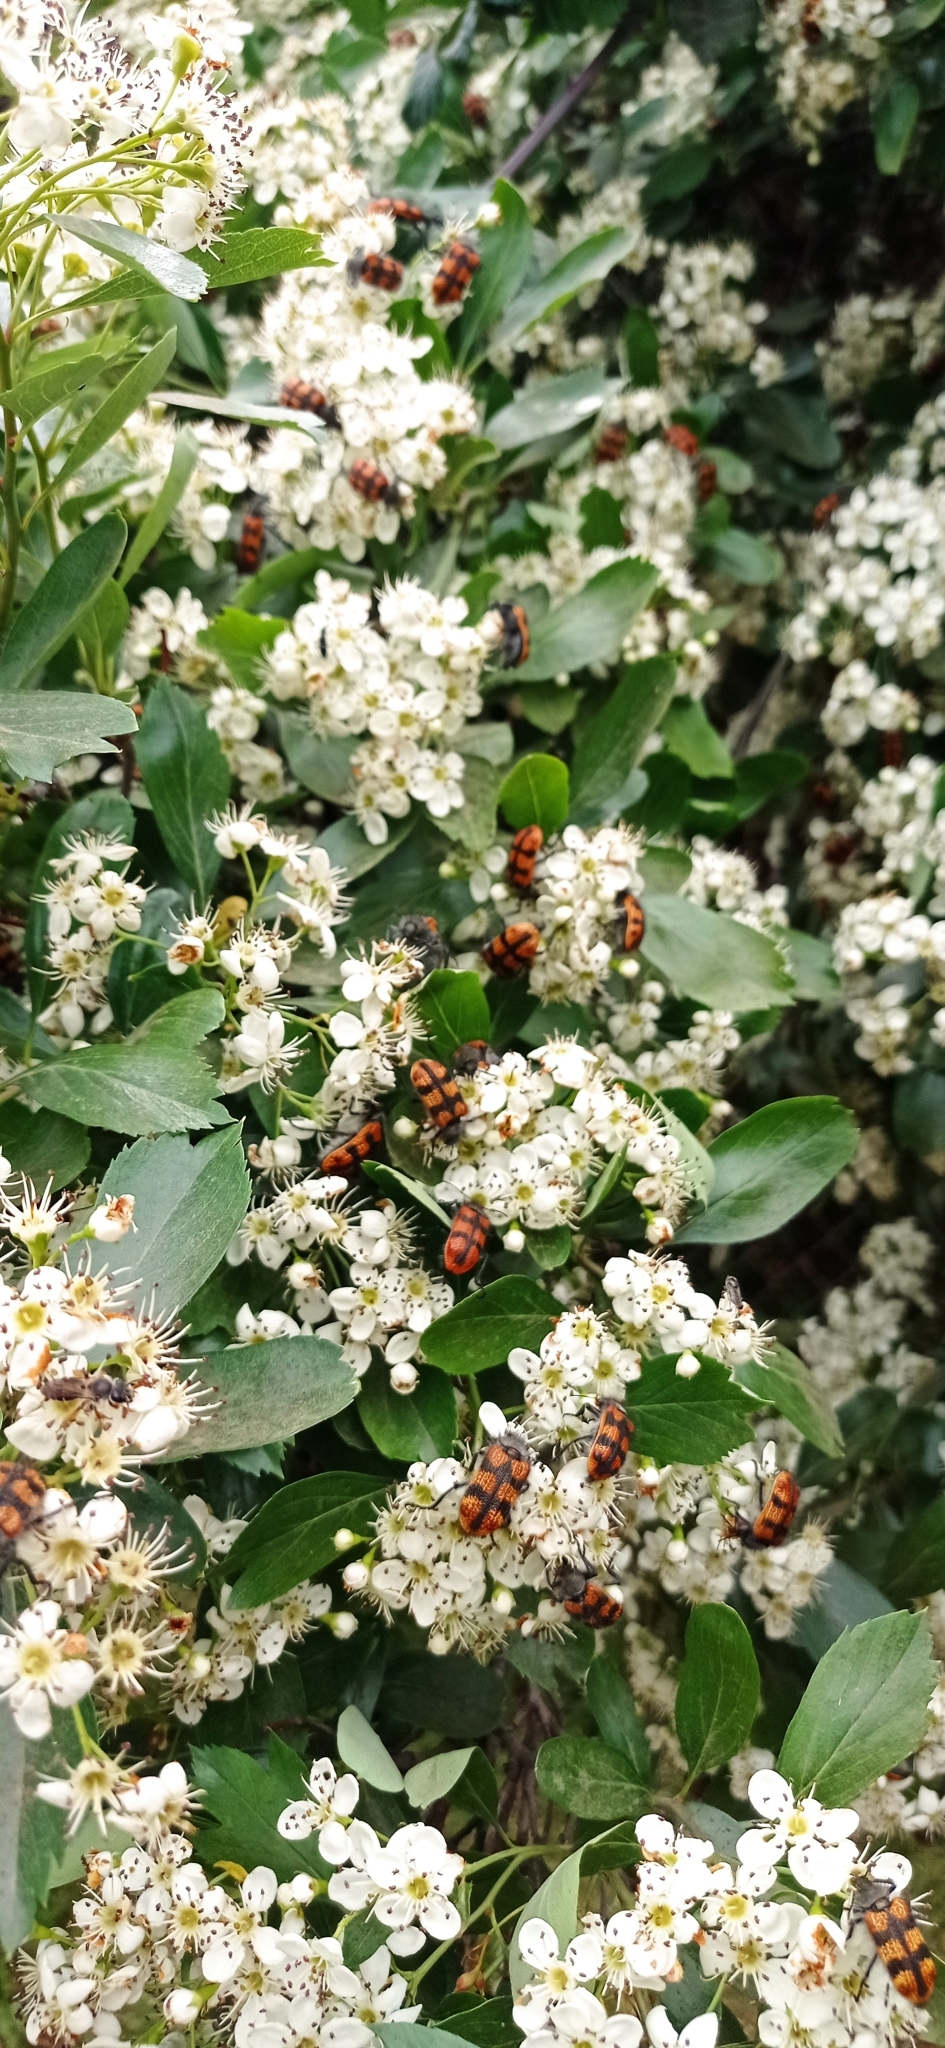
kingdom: Animalia
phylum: Arthropoda
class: Insecta
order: Coleoptera
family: Melyridae
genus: Astylus
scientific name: Astylus
